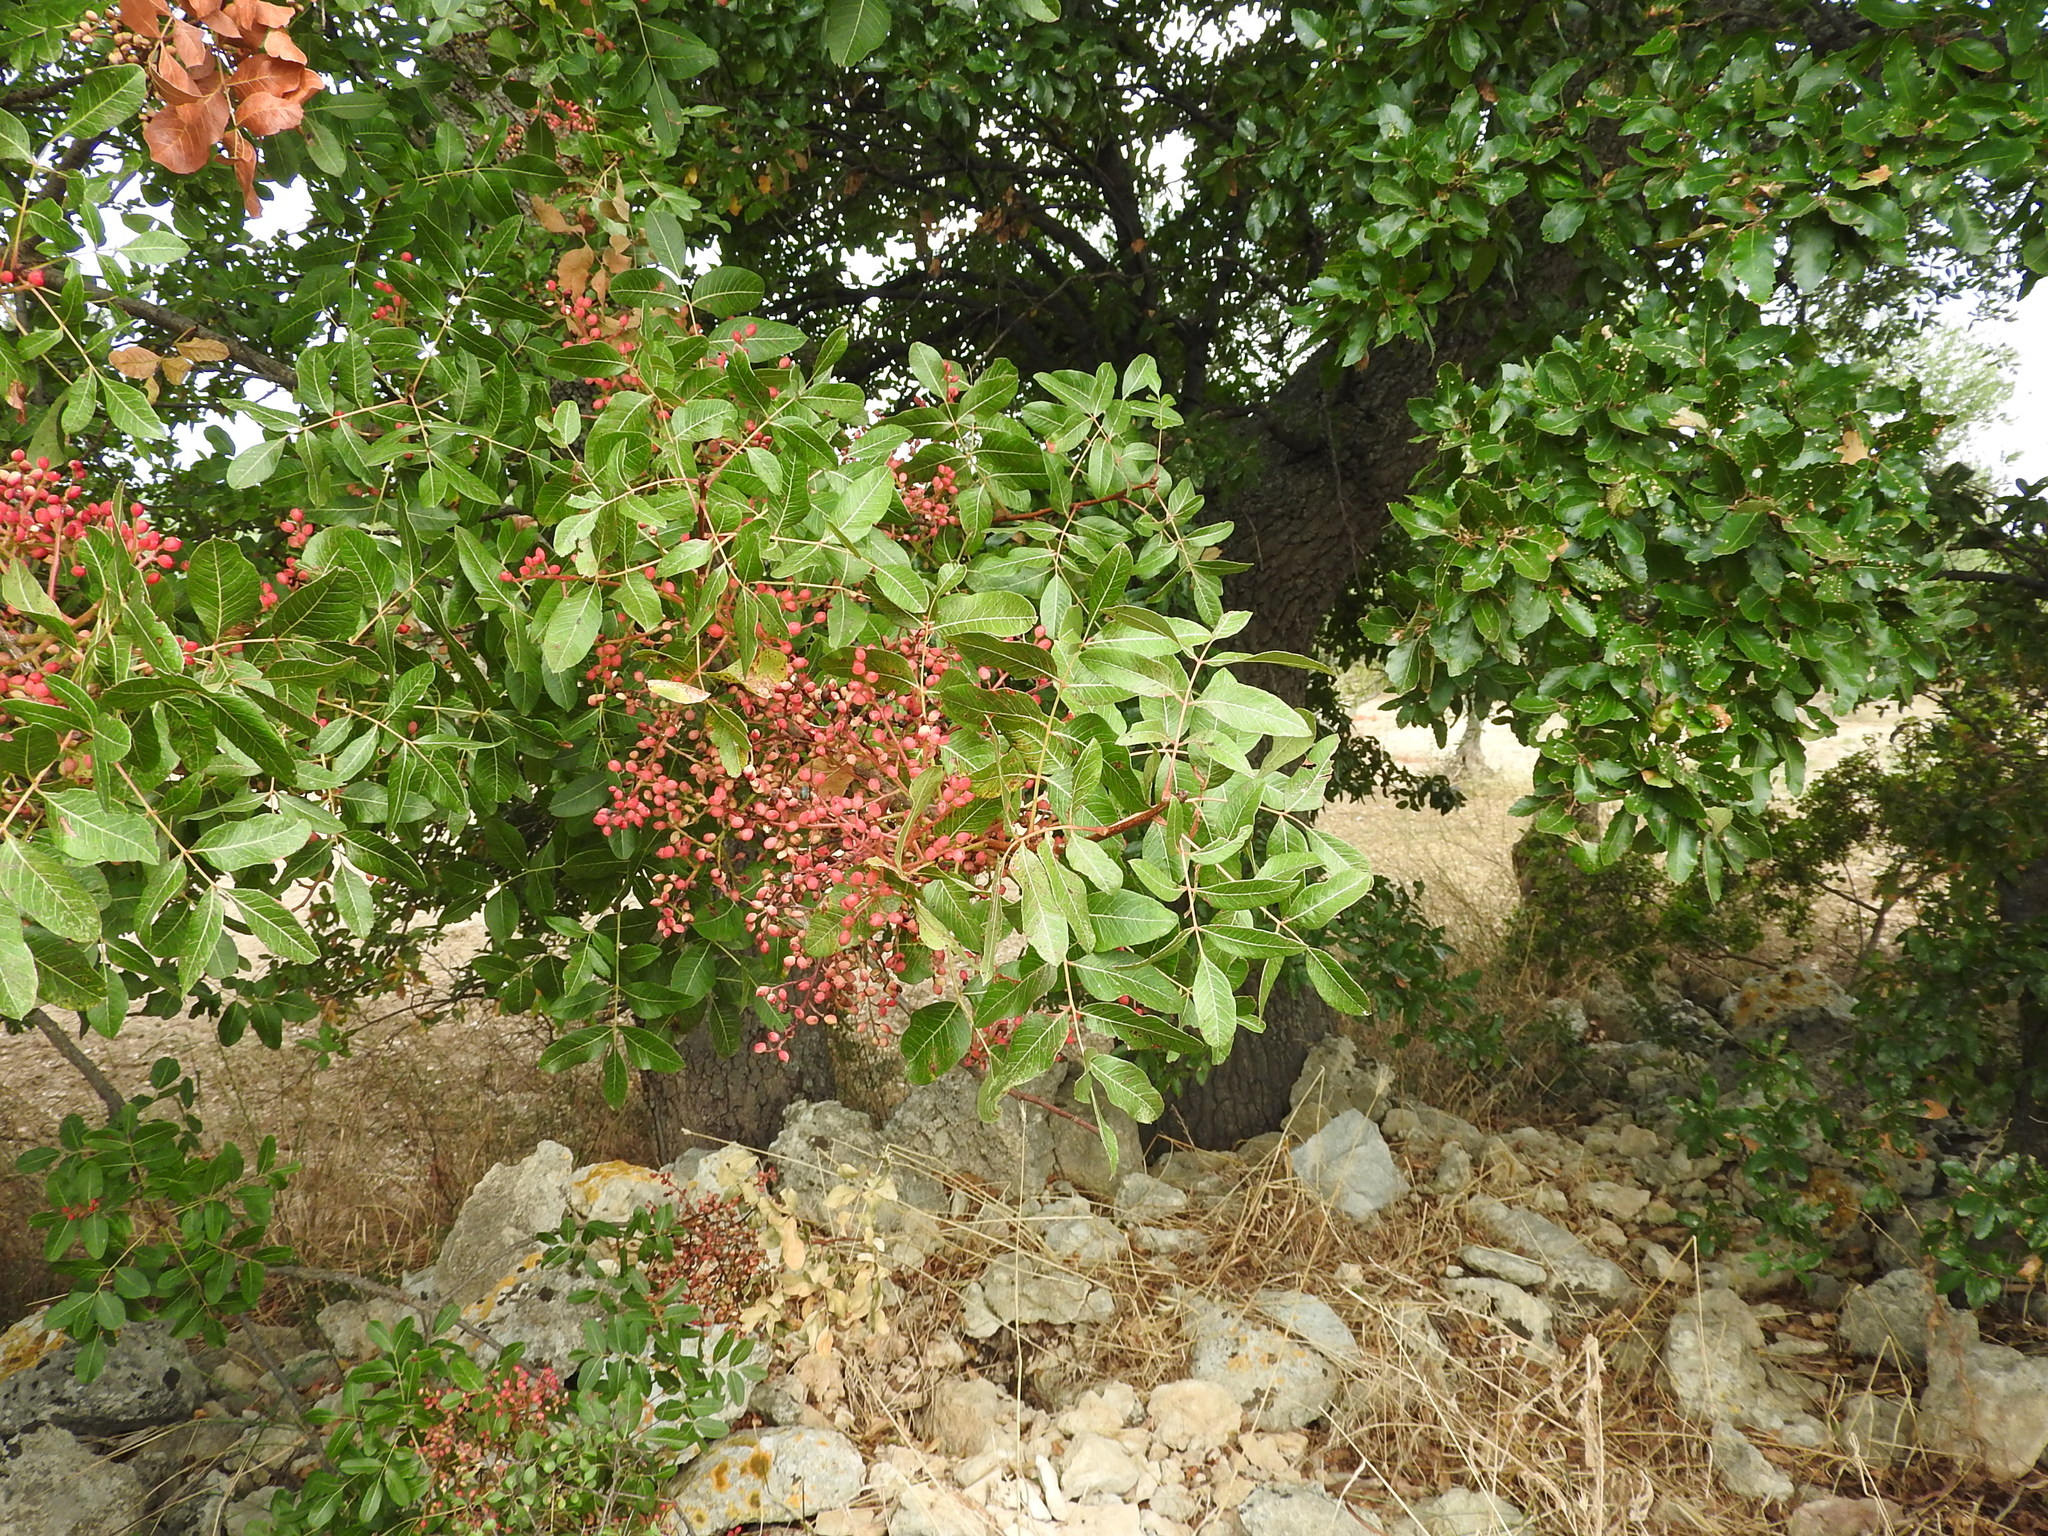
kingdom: Plantae
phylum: Tracheophyta
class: Magnoliopsida
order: Sapindales
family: Anacardiaceae
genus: Pistacia
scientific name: Pistacia terebinthus
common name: Terebinth
